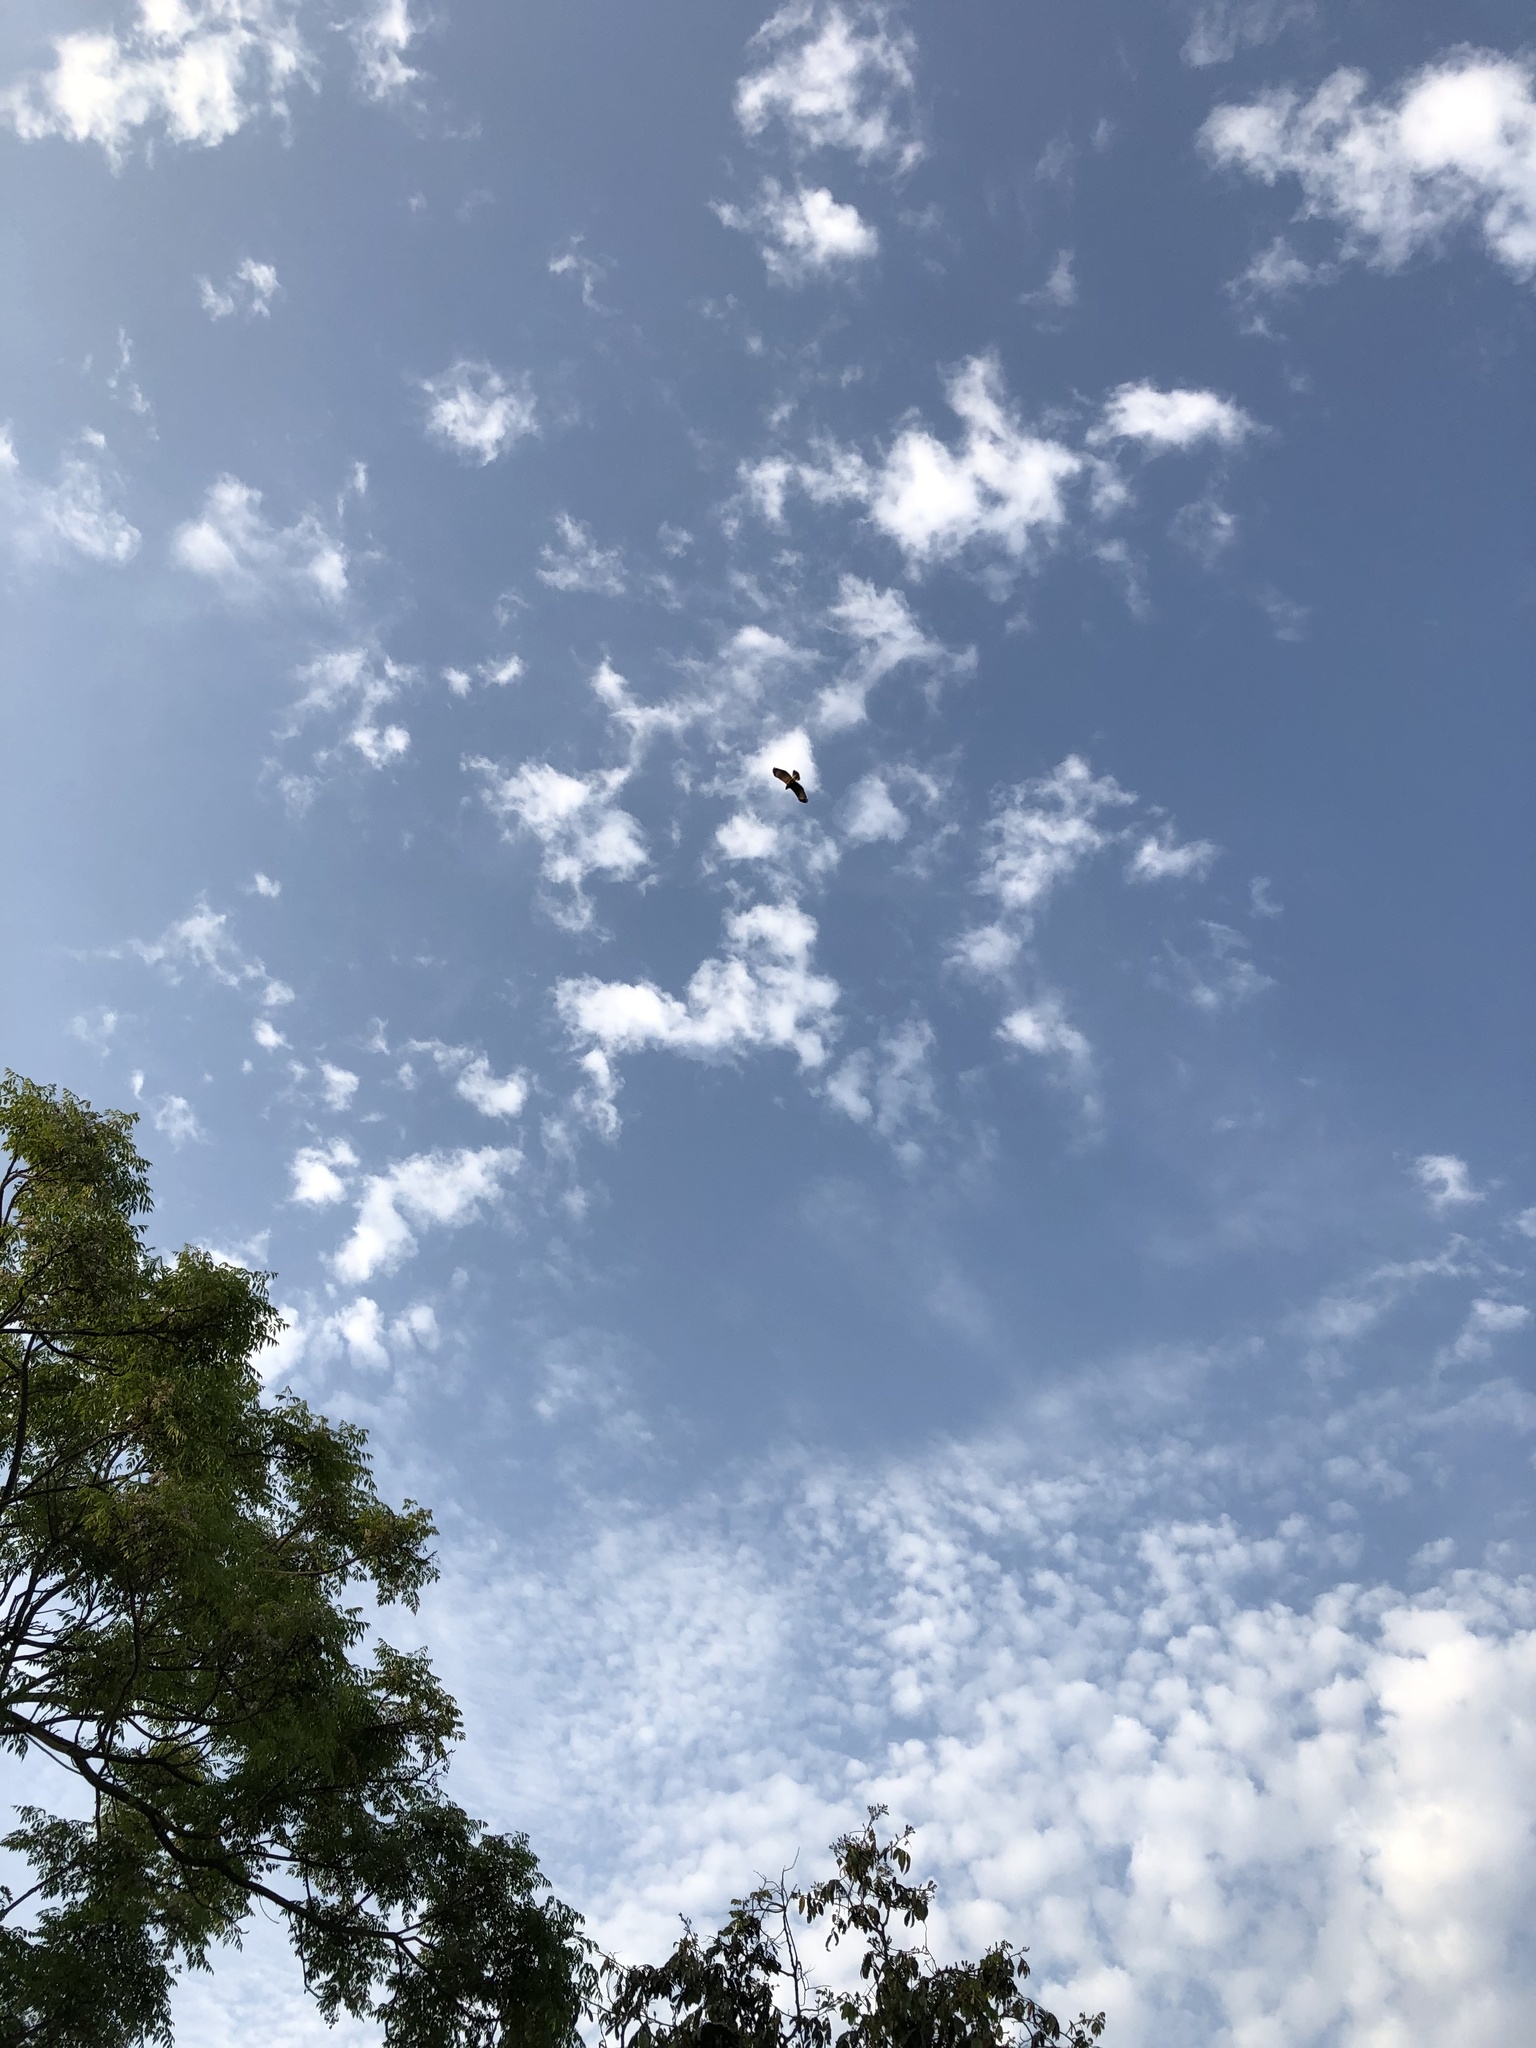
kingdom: Animalia
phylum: Chordata
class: Aves
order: Accipitriformes
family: Accipitridae
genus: Parabuteo
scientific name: Parabuteo unicinctus
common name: Harris's hawk
